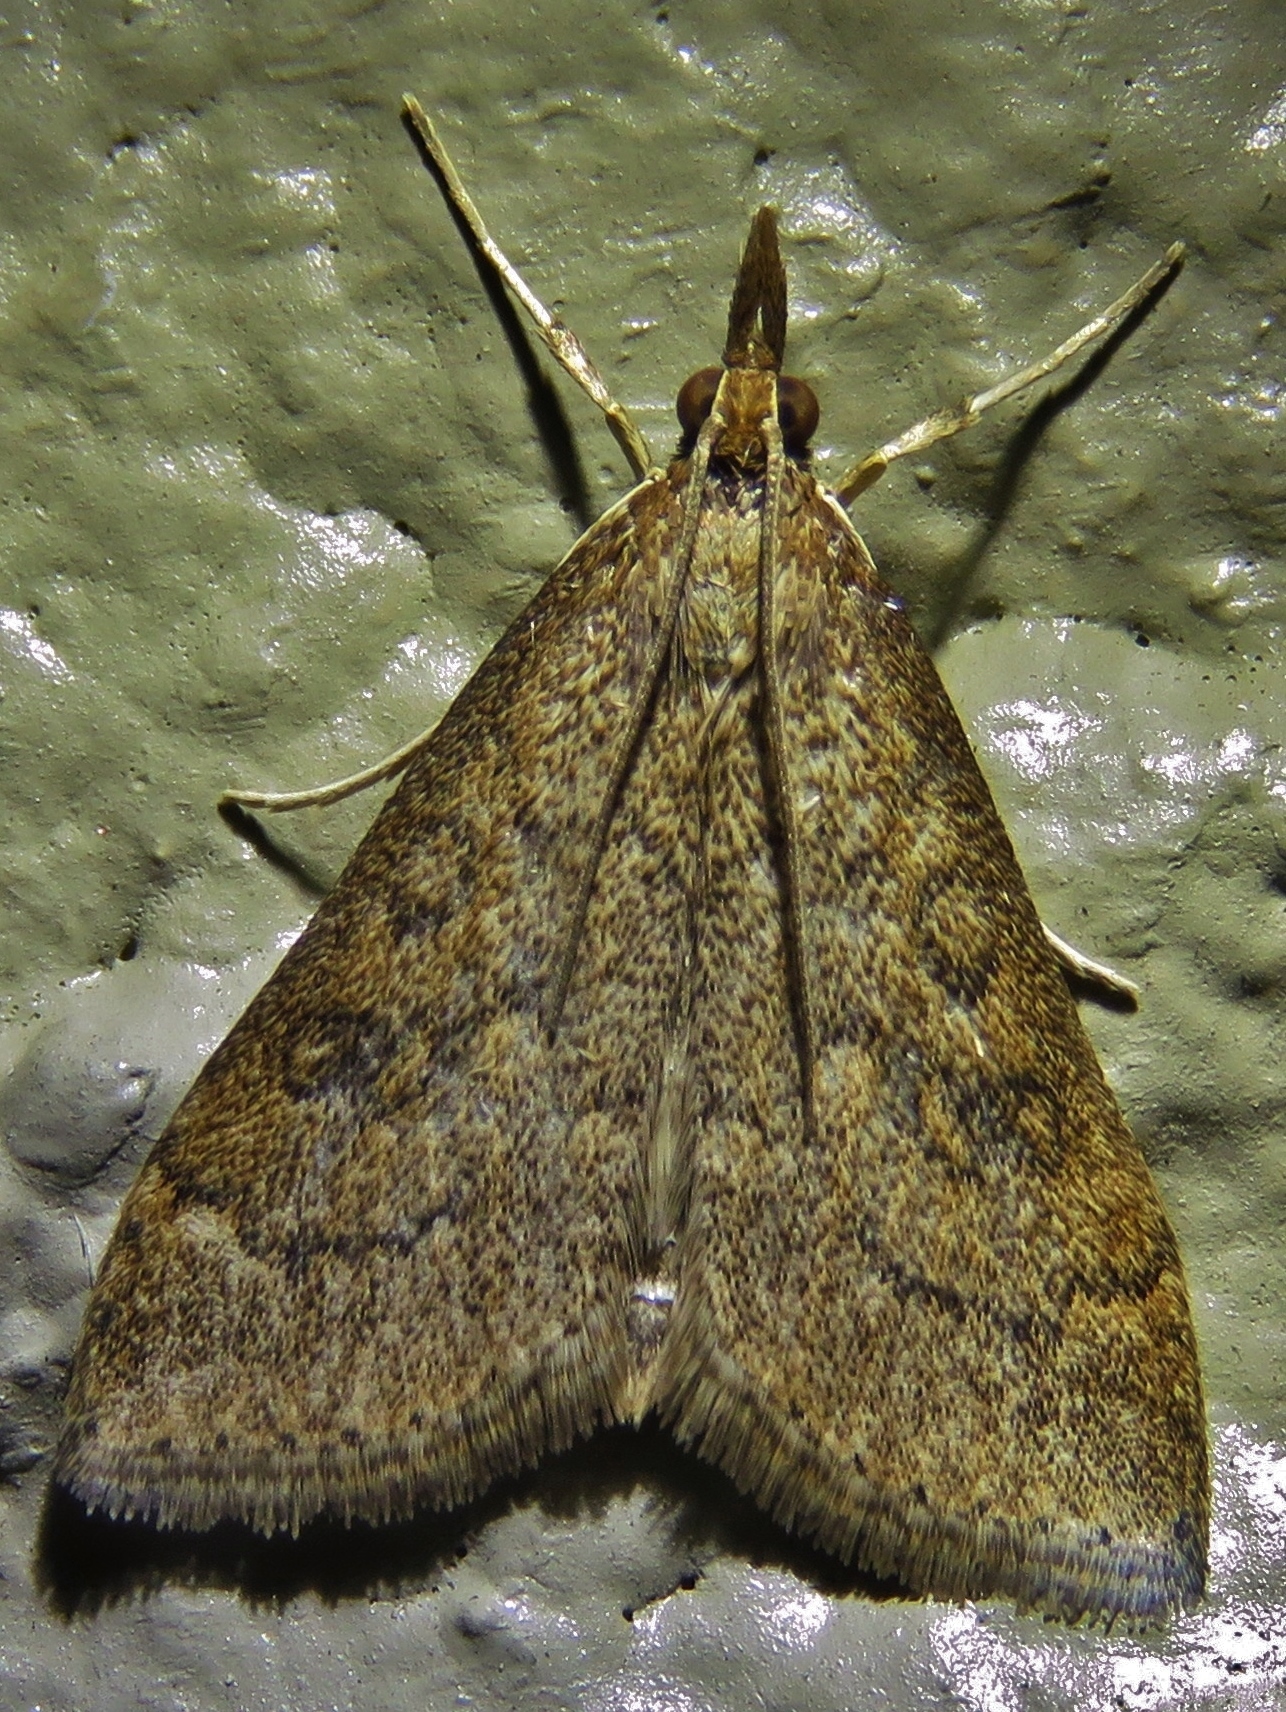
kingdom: Animalia
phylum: Arthropoda
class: Insecta
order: Lepidoptera
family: Crambidae
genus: Udea
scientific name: Udea rubigalis
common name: Celery leaftier moth
